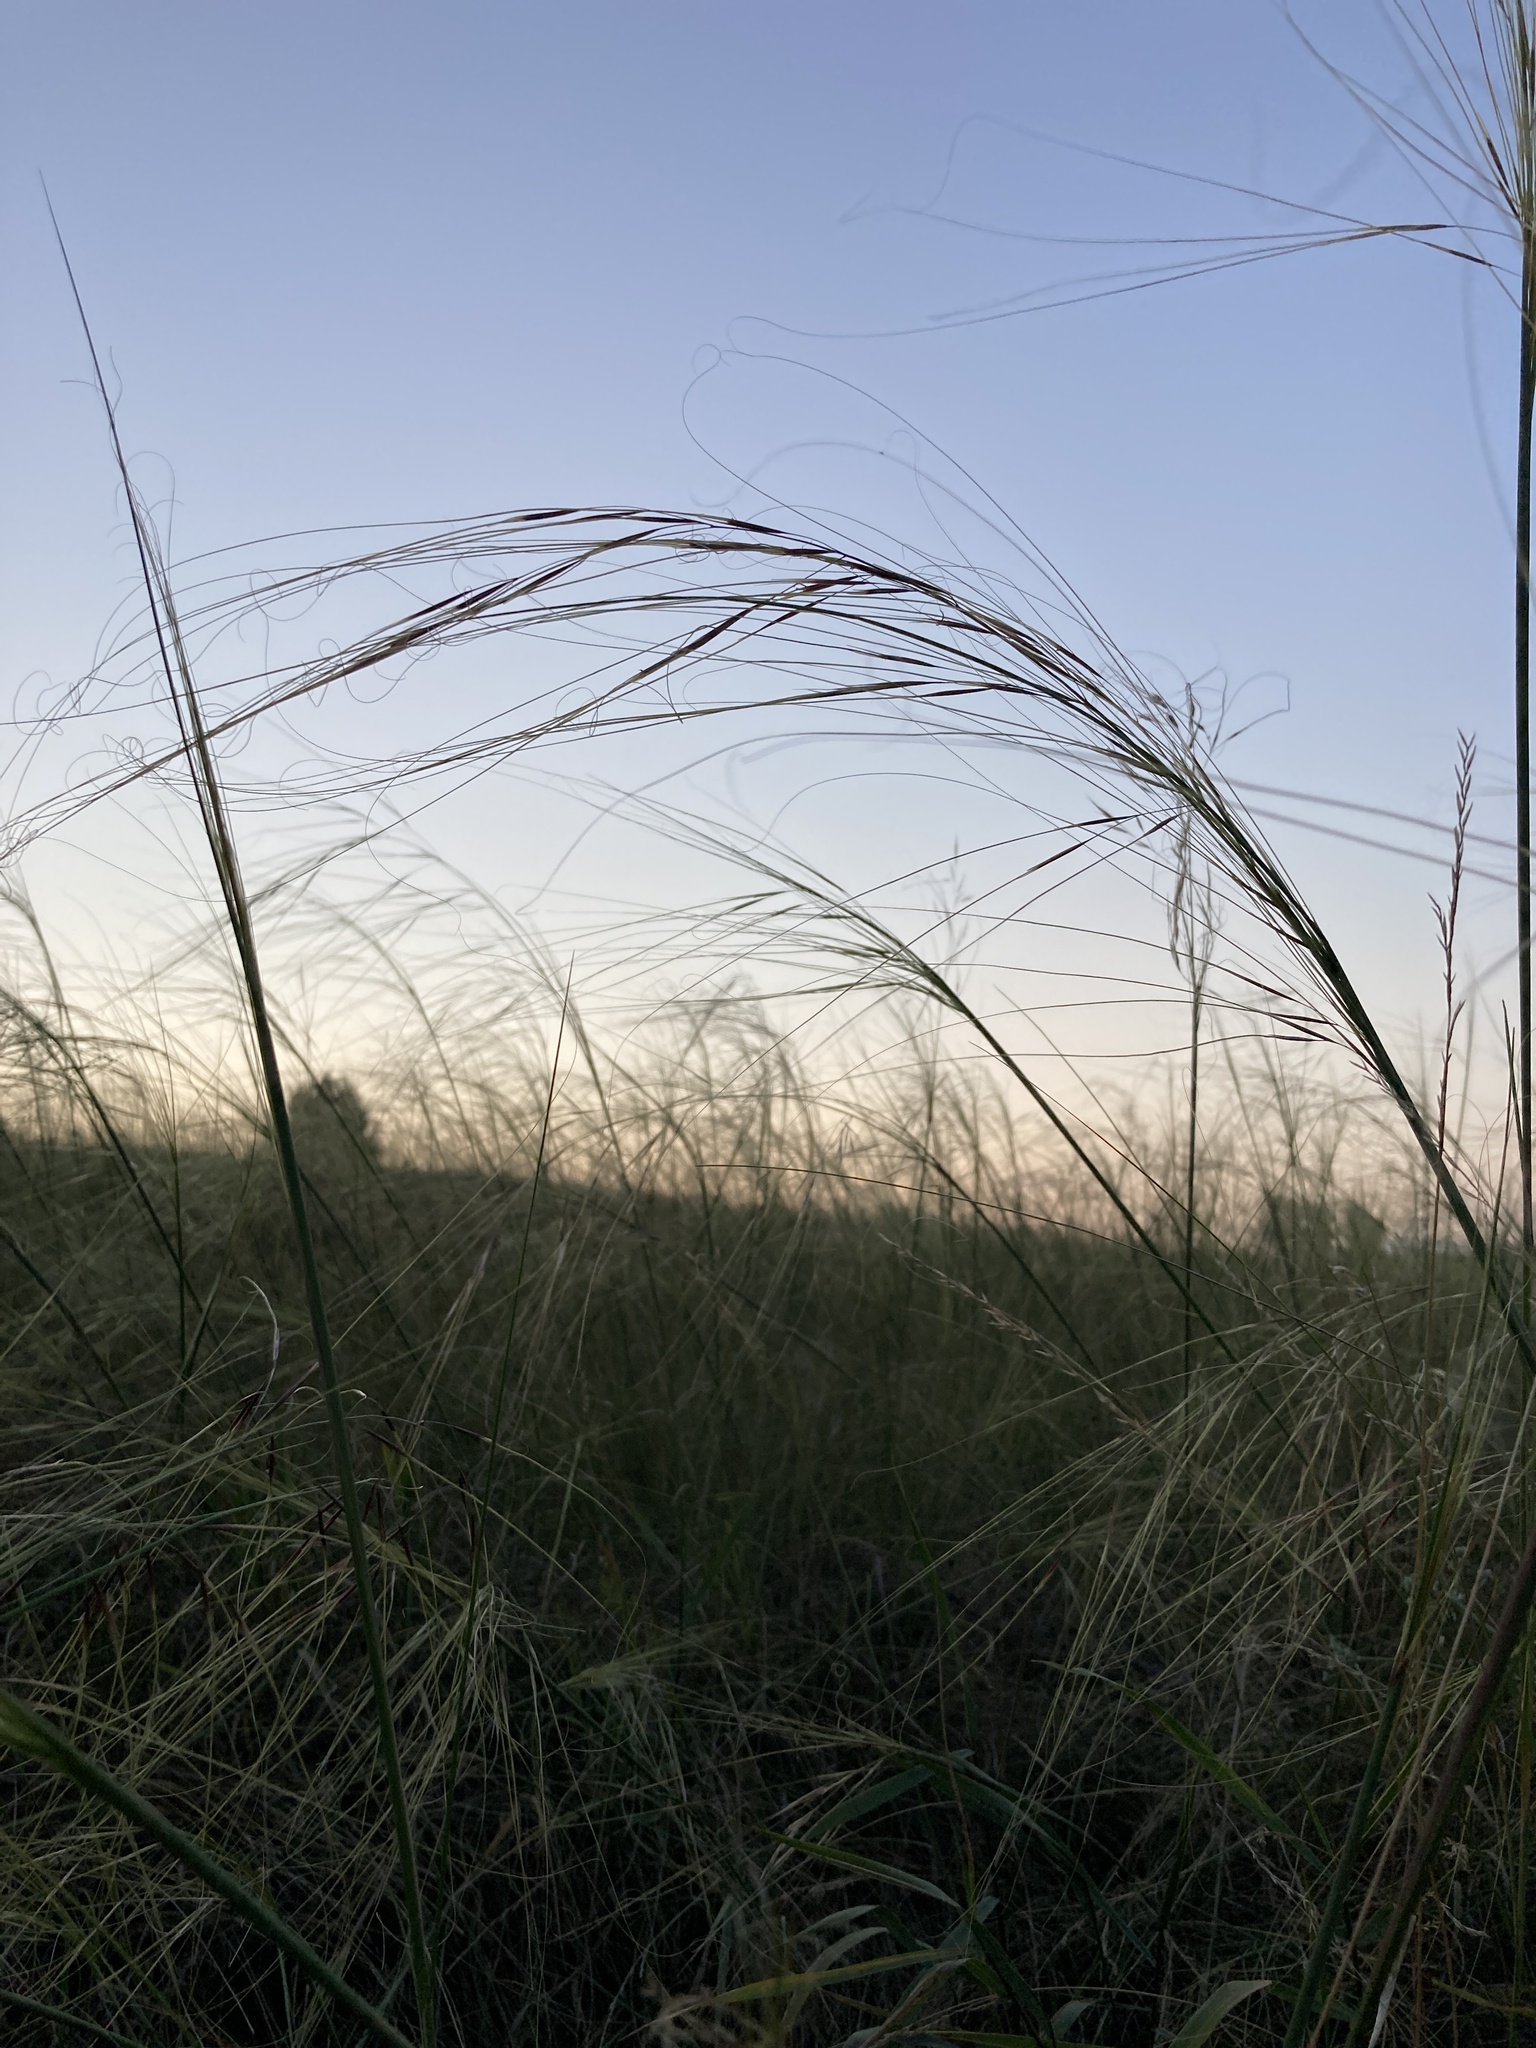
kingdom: Plantae
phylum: Tracheophyta
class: Liliopsida
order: Poales
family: Poaceae
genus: Stipa
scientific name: Stipa capillata
